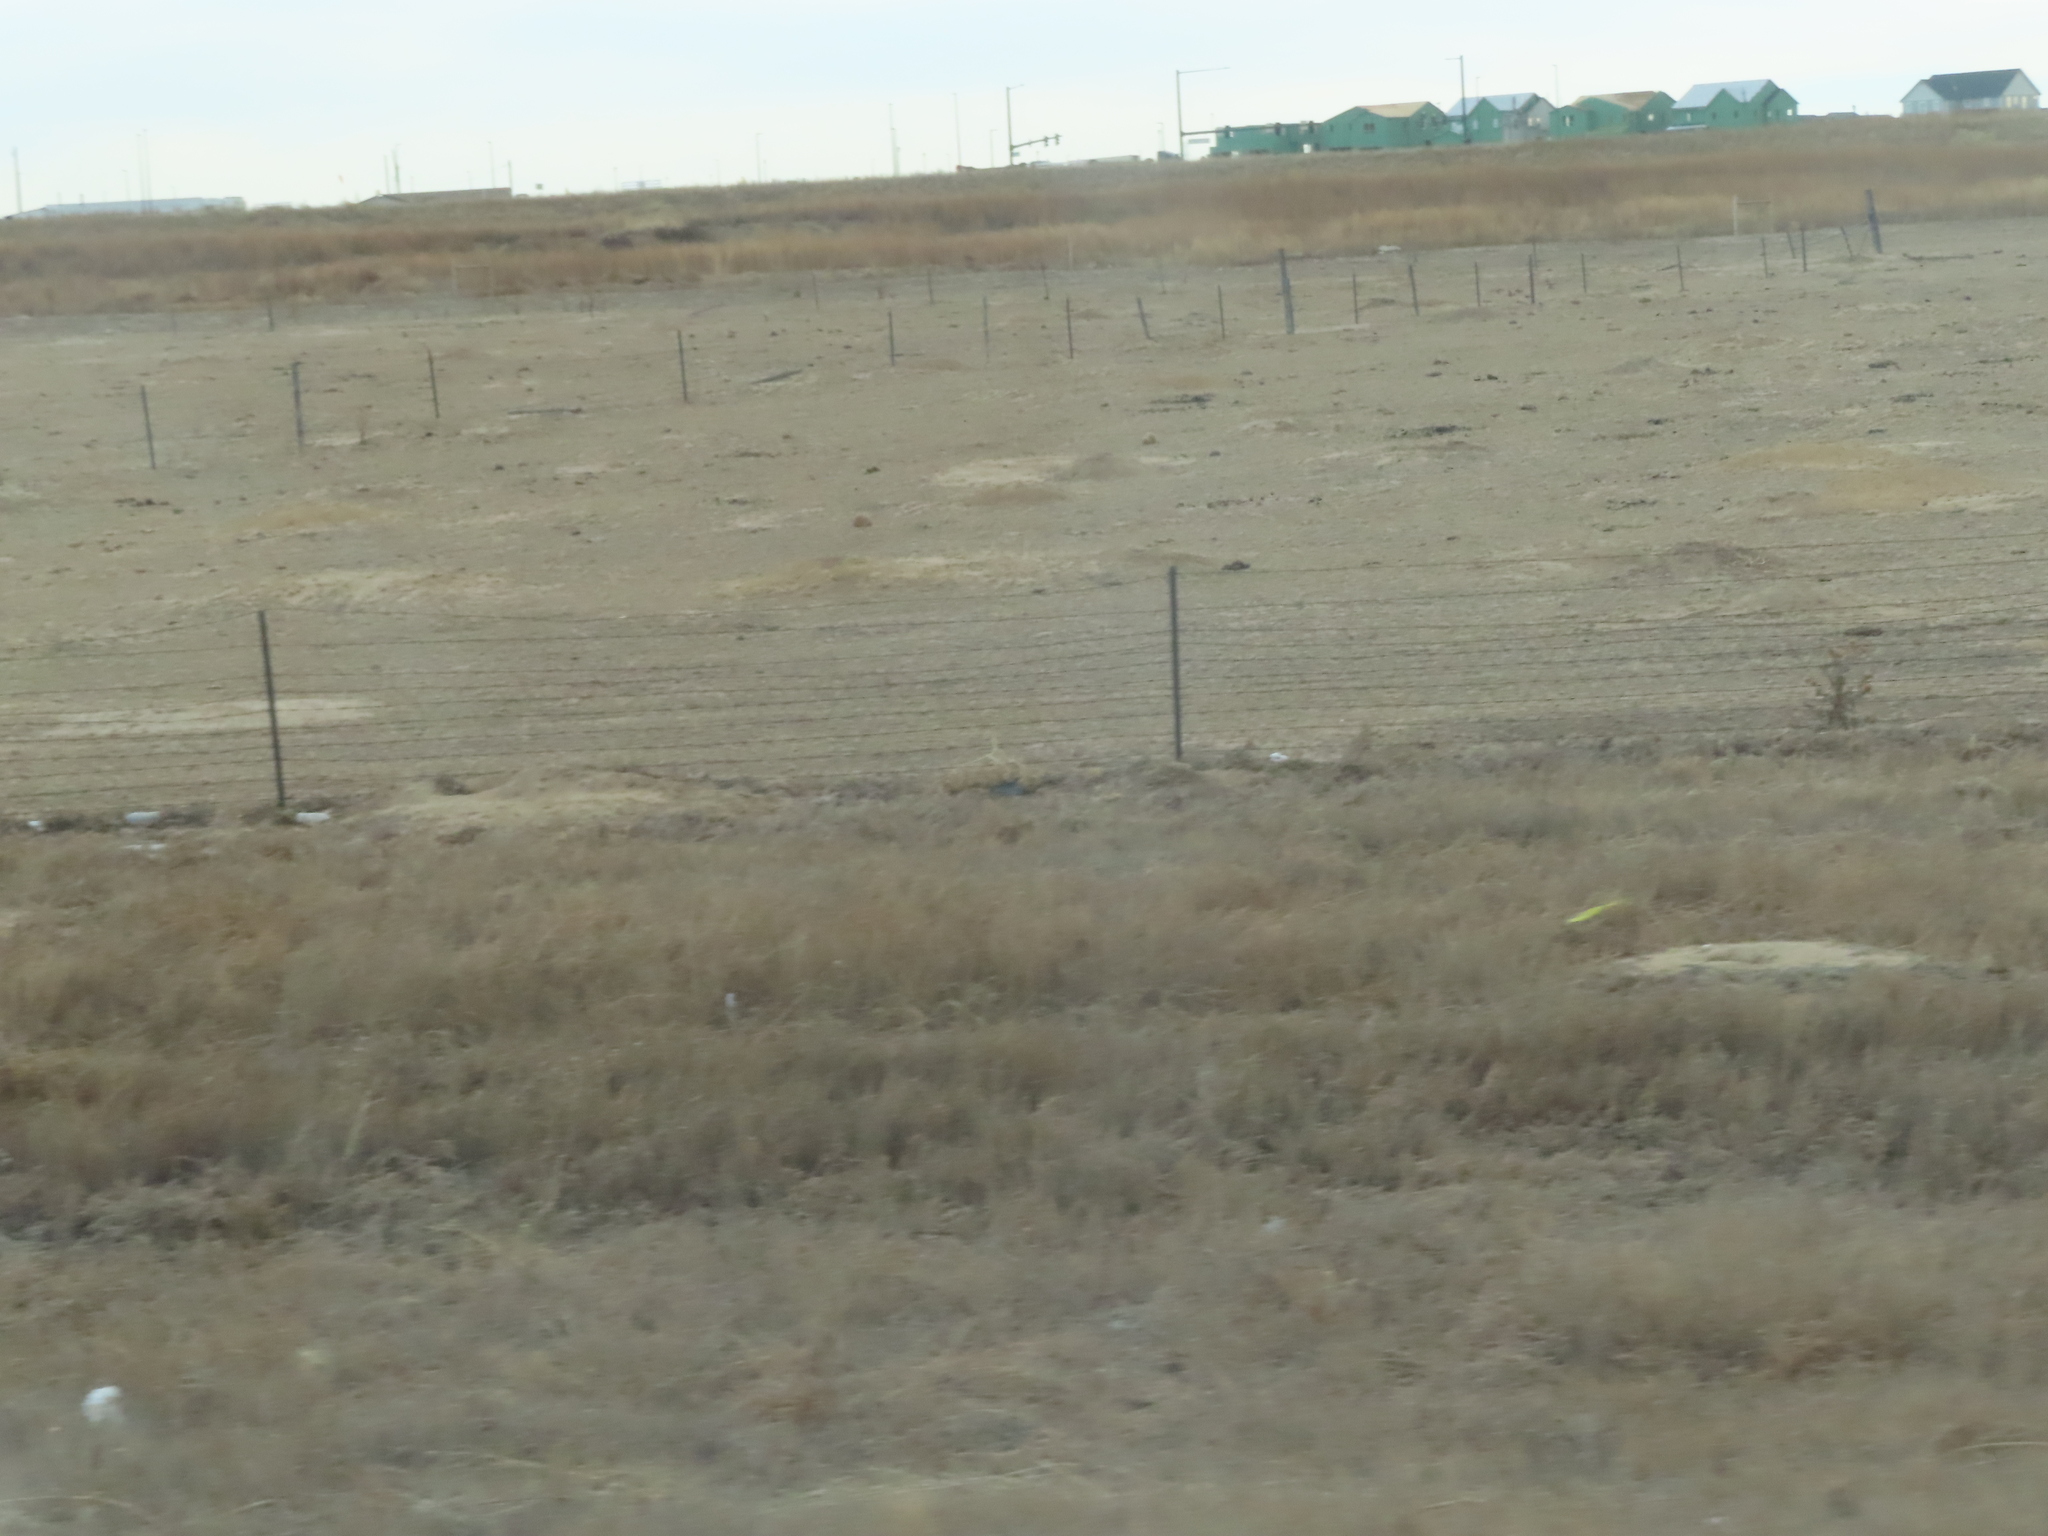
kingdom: Animalia
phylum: Chordata
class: Mammalia
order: Rodentia
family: Sciuridae
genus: Cynomys
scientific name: Cynomys ludovicianus
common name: Black-tailed prairie dog
